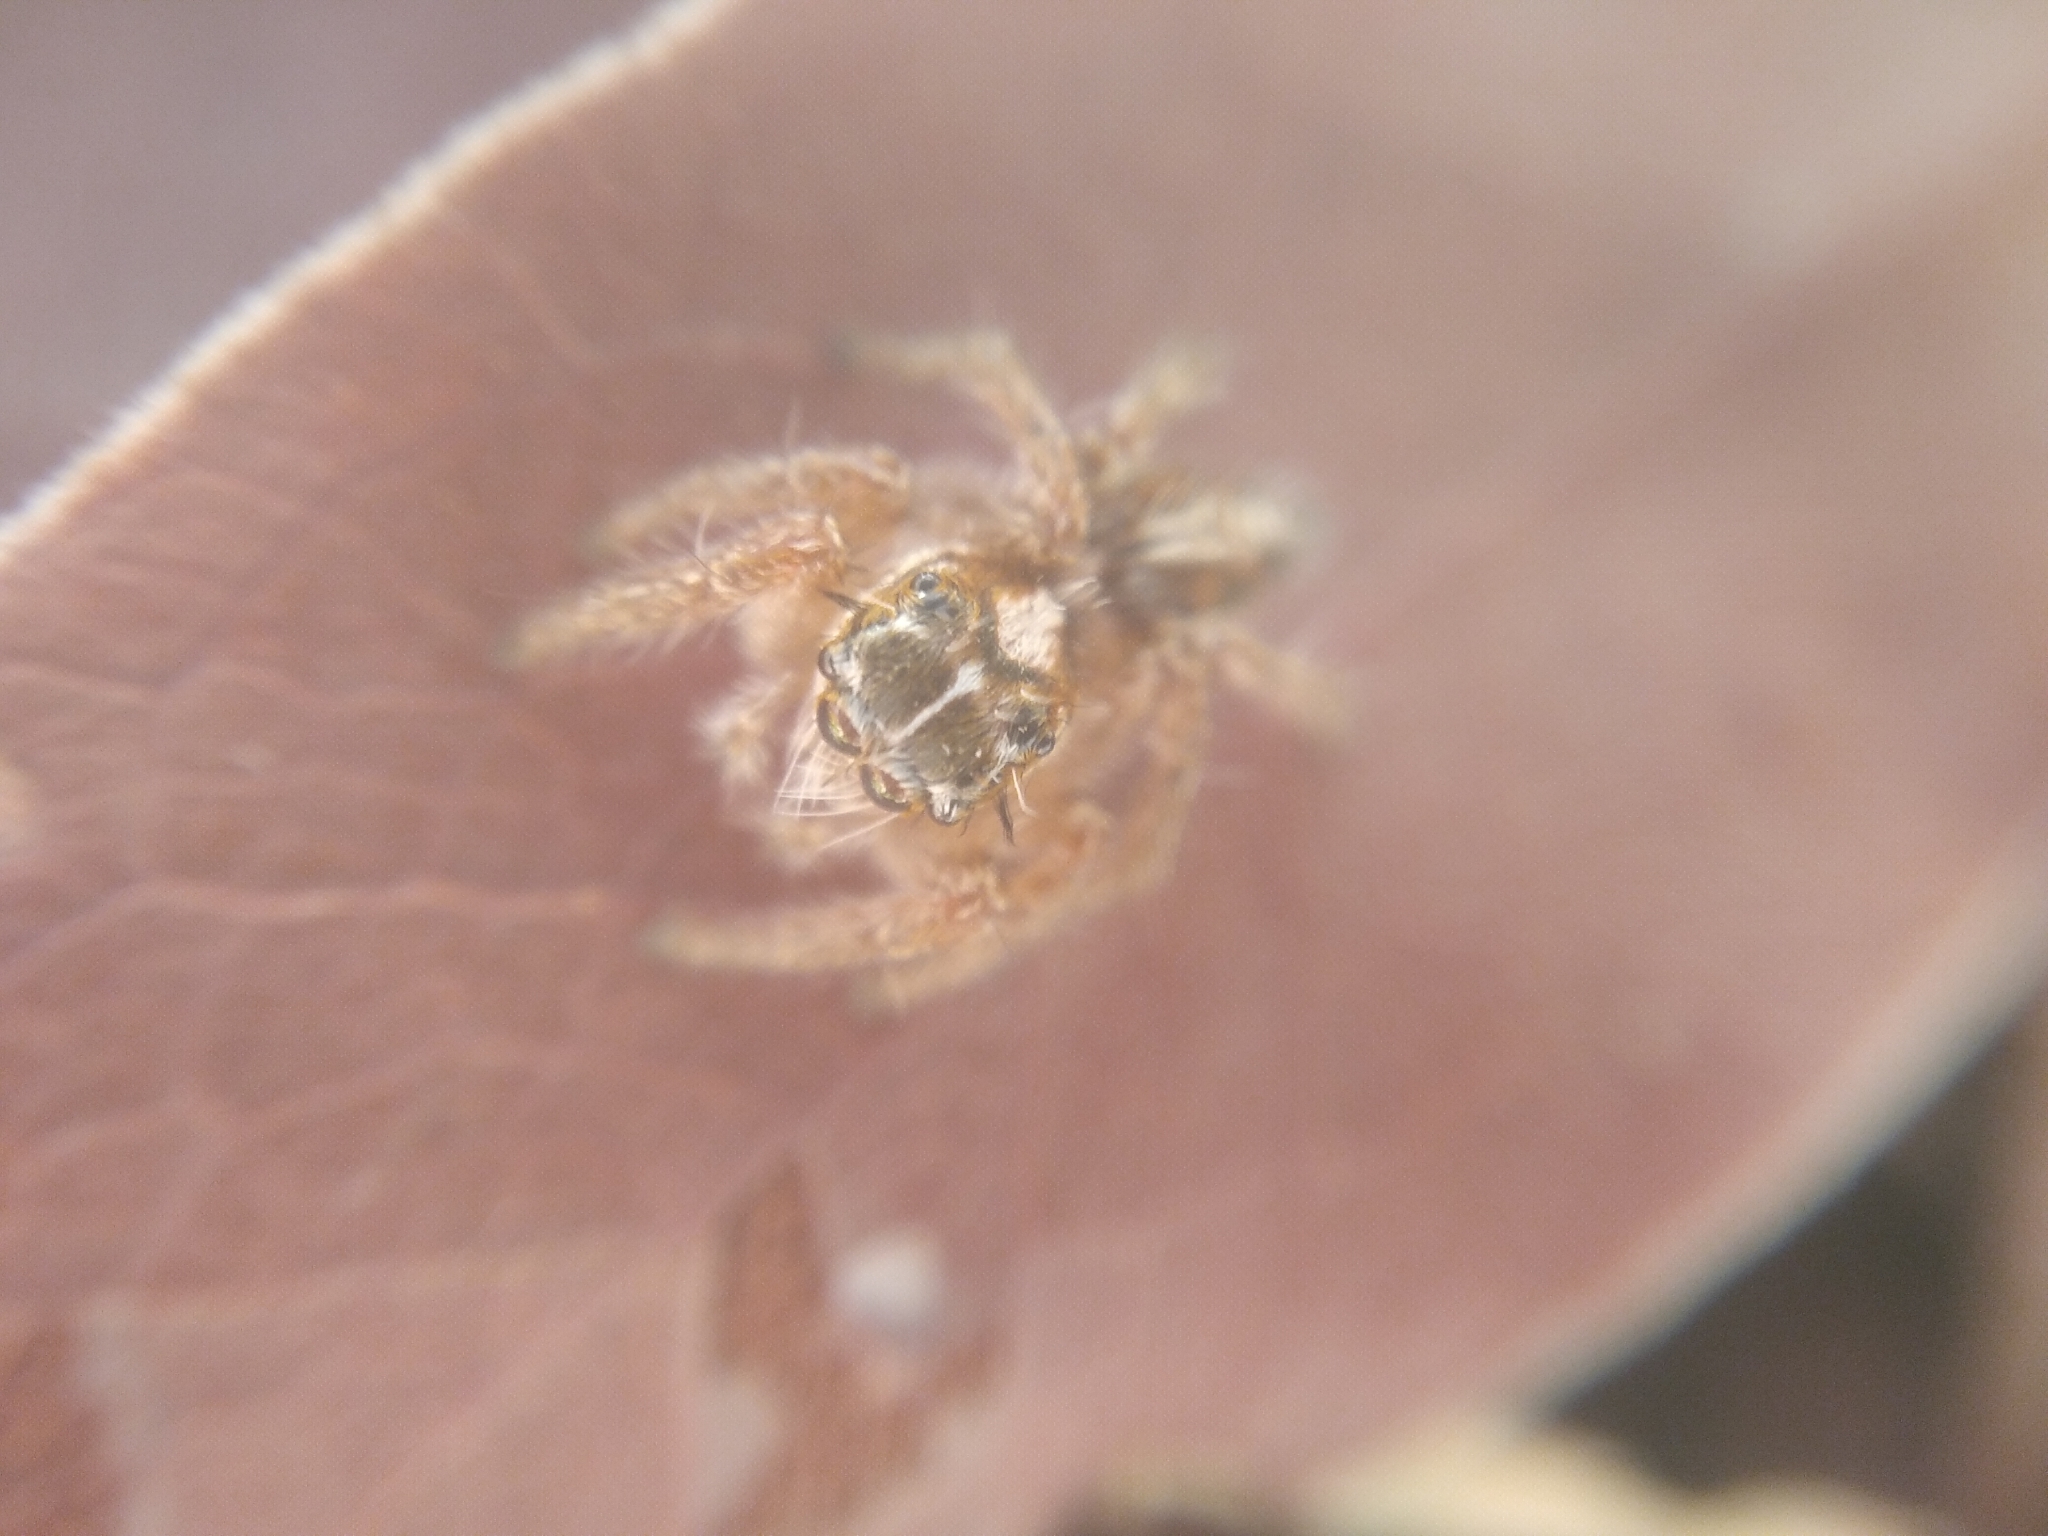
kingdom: Animalia
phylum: Arthropoda
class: Arachnida
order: Araneae
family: Salticidae
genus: Hyllus
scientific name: Hyllus argyrotoxus
